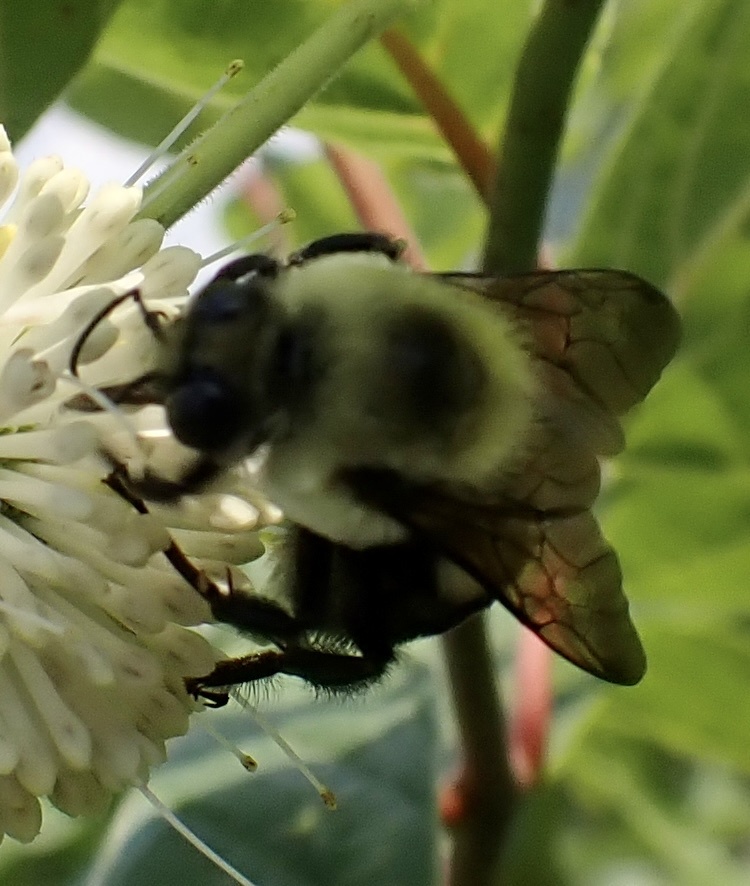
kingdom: Animalia
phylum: Arthropoda
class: Insecta
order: Hymenoptera
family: Apidae
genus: Bombus
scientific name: Bombus griseocollis
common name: Brown-belted bumble bee
